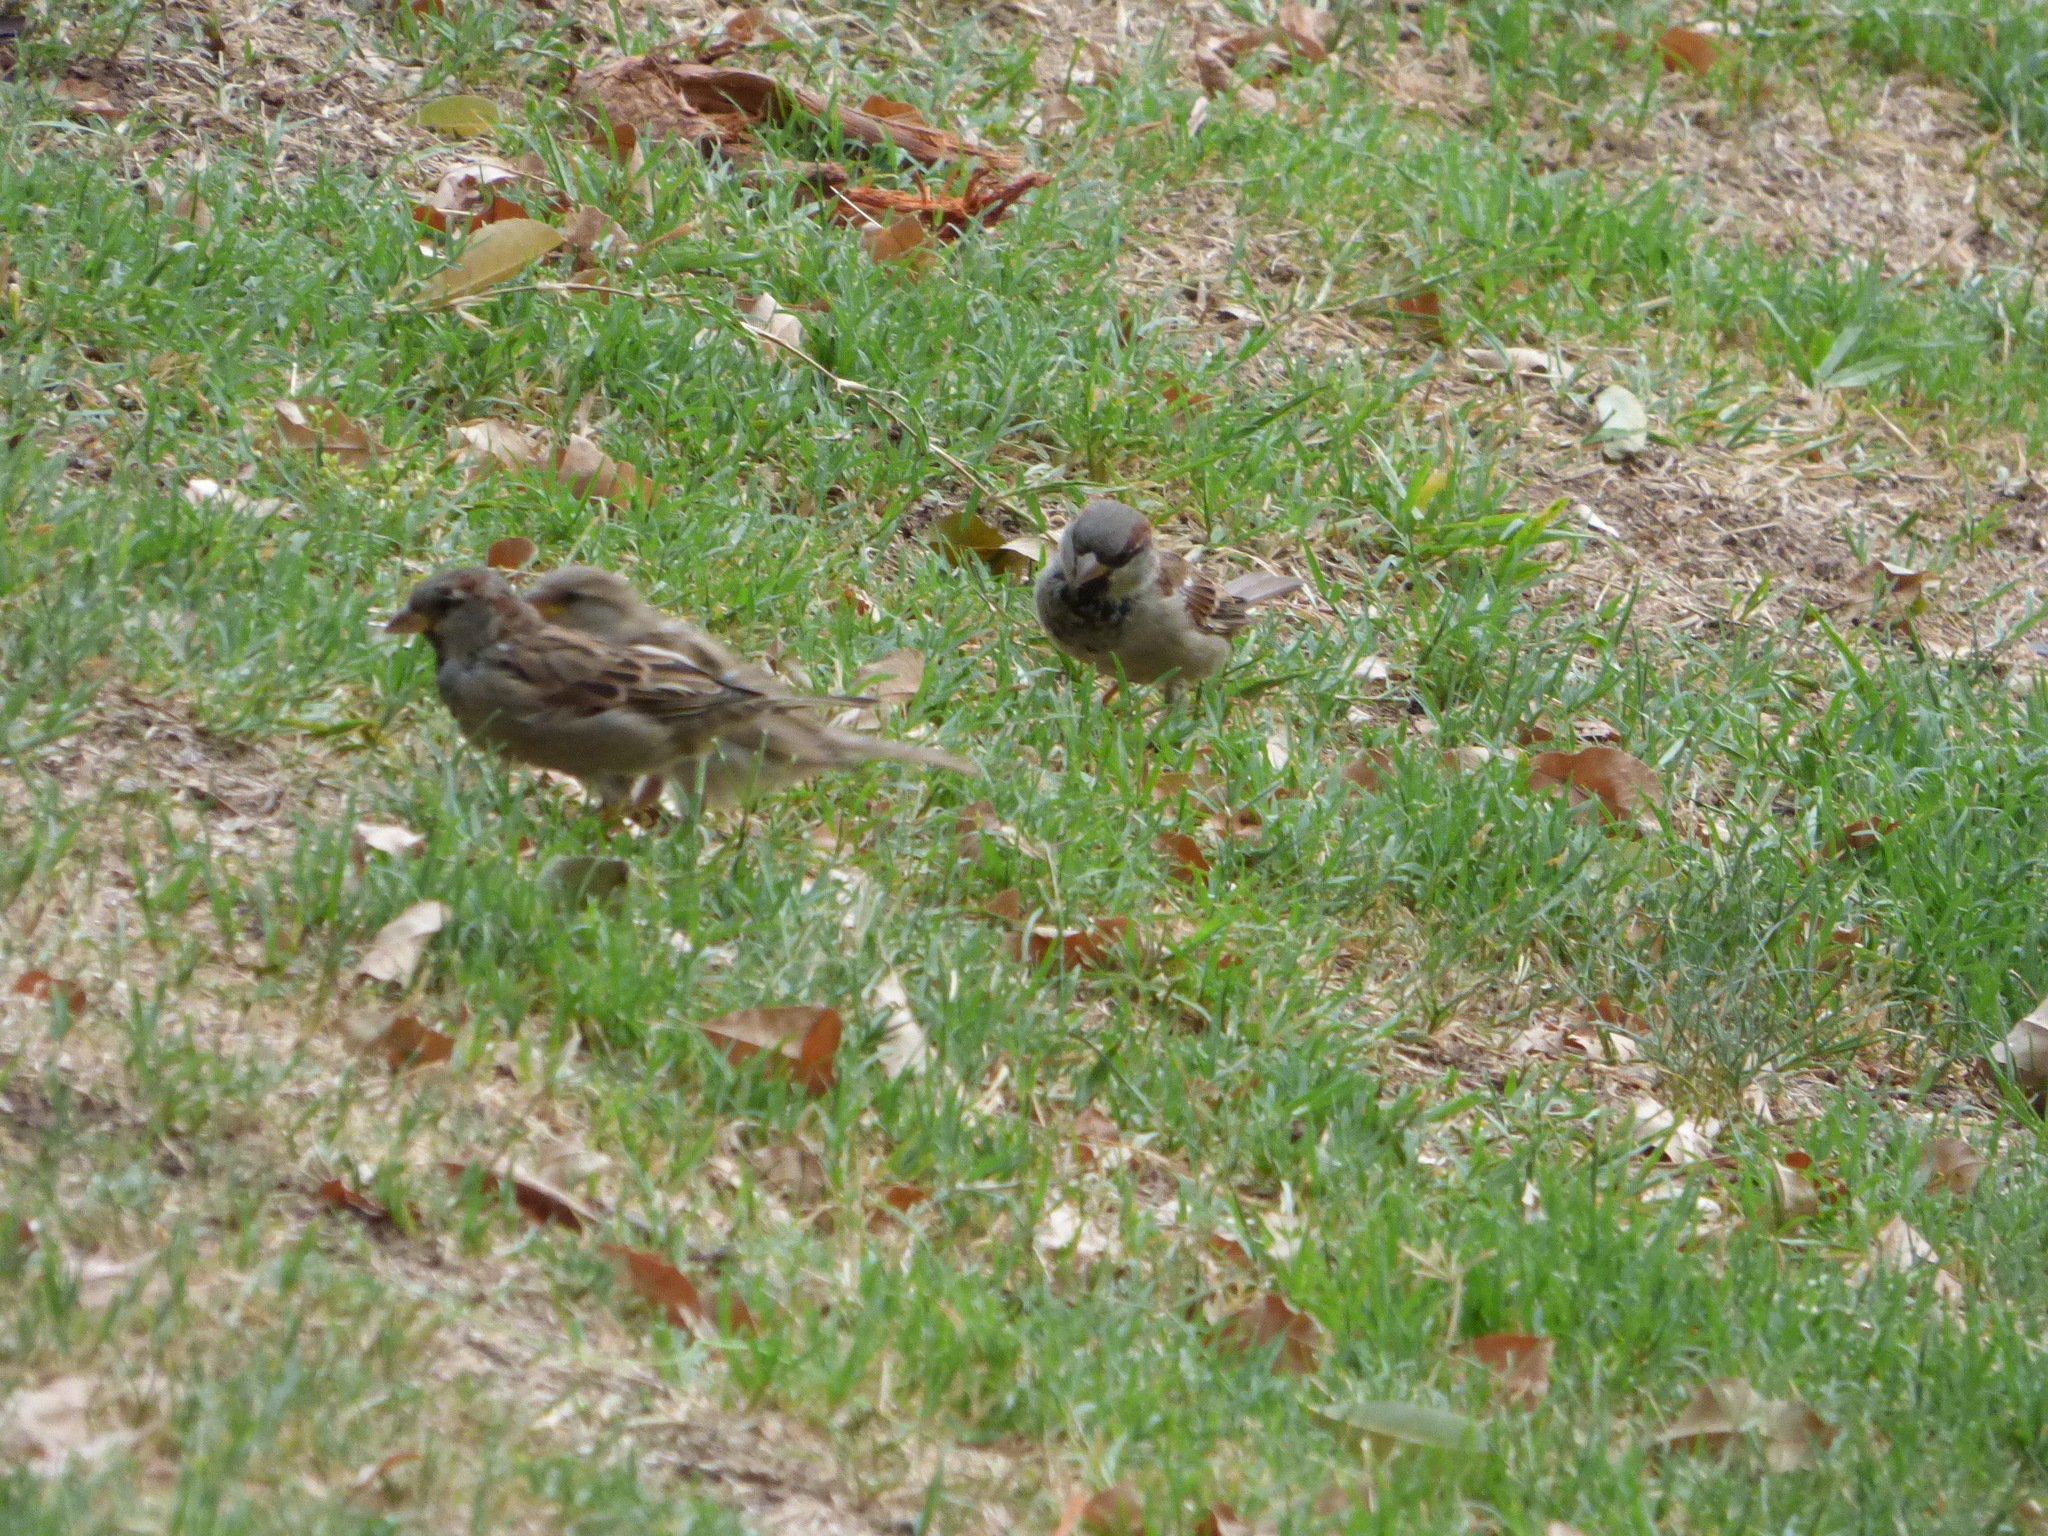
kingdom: Animalia
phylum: Chordata
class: Aves
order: Passeriformes
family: Passeridae
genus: Passer
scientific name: Passer domesticus
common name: House sparrow
